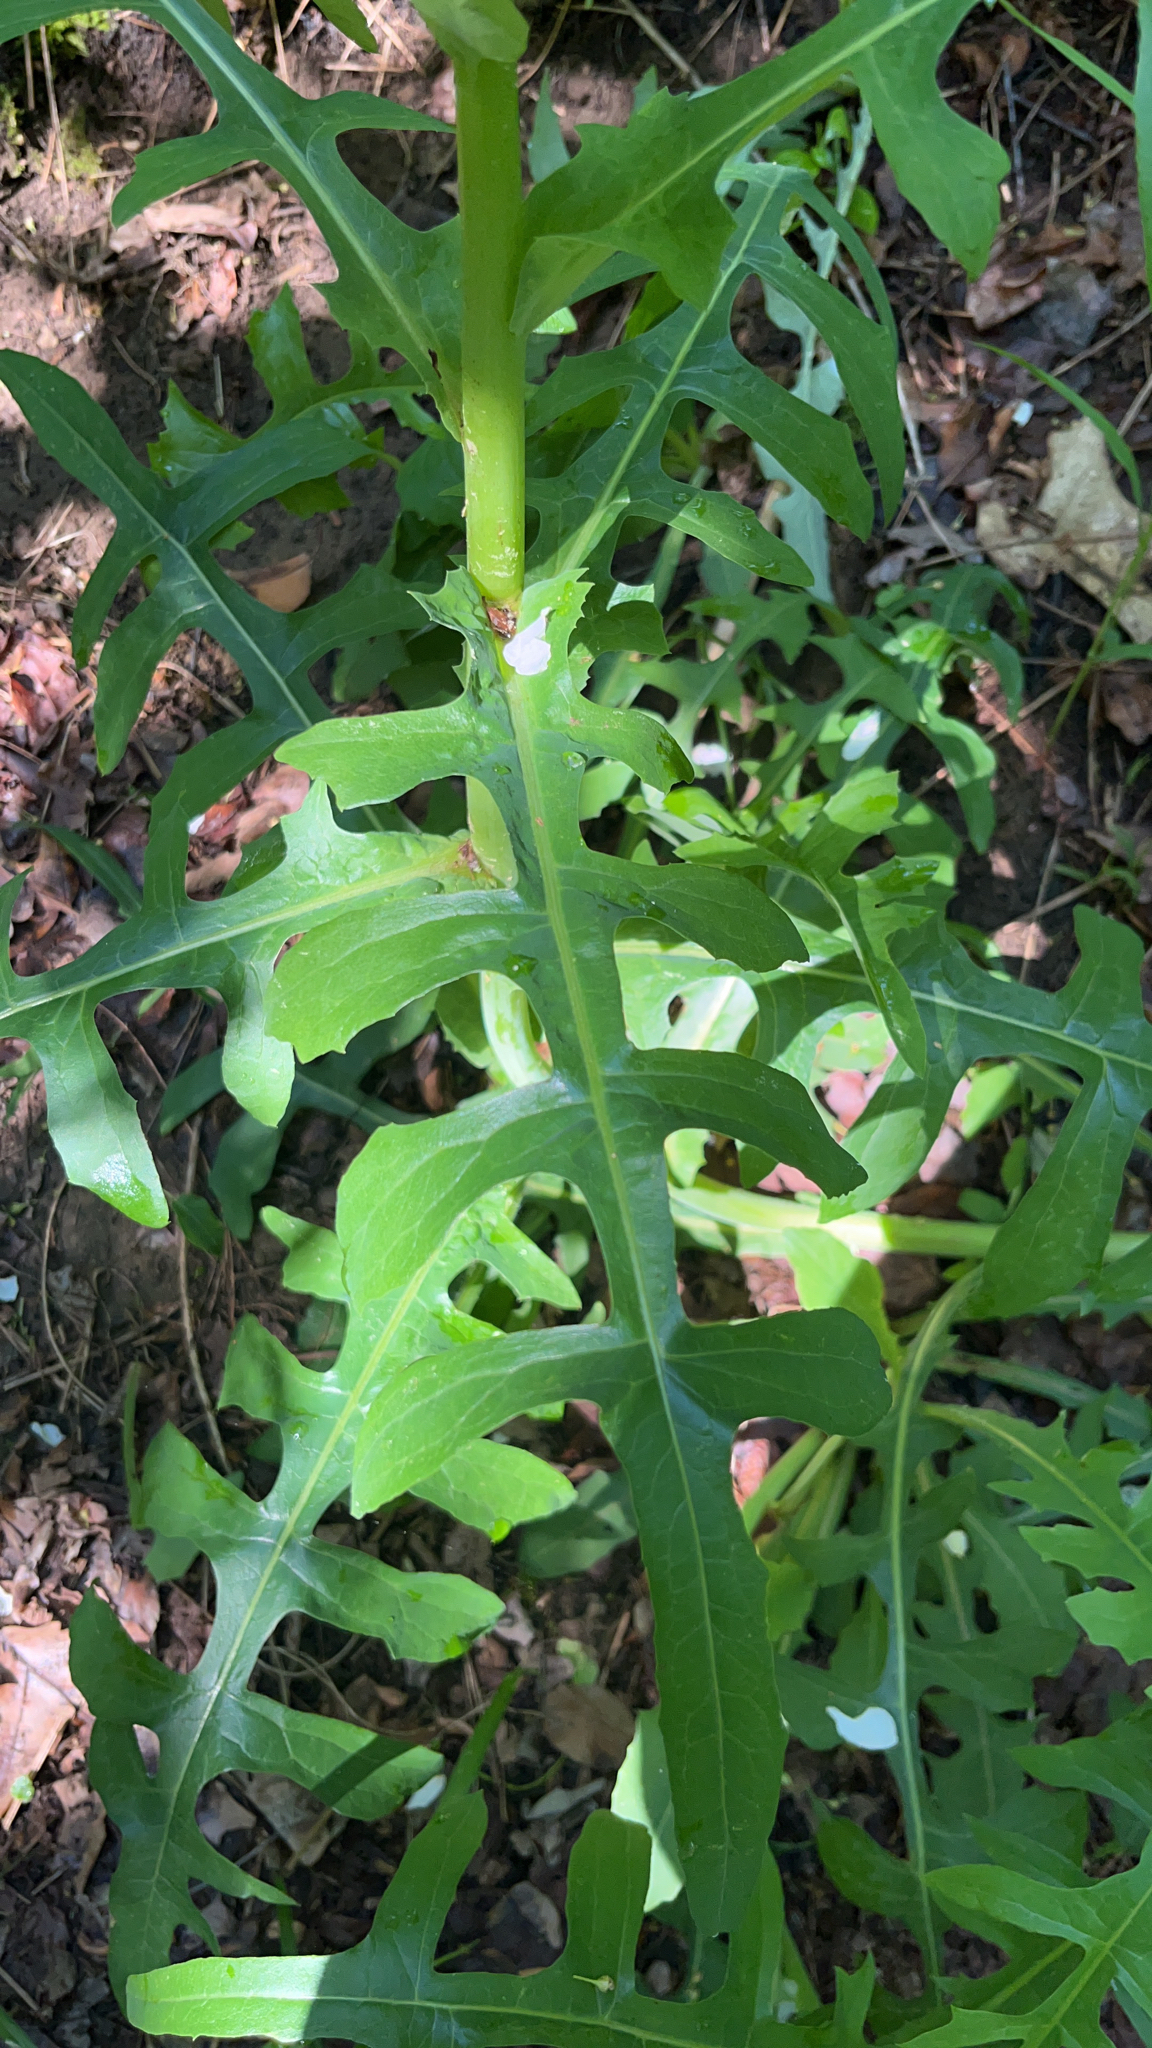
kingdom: Plantae
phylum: Tracheophyta
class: Magnoliopsida
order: Asterales
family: Asteraceae
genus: Lactuca
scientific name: Lactuca canadensis
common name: Canada lettuce
